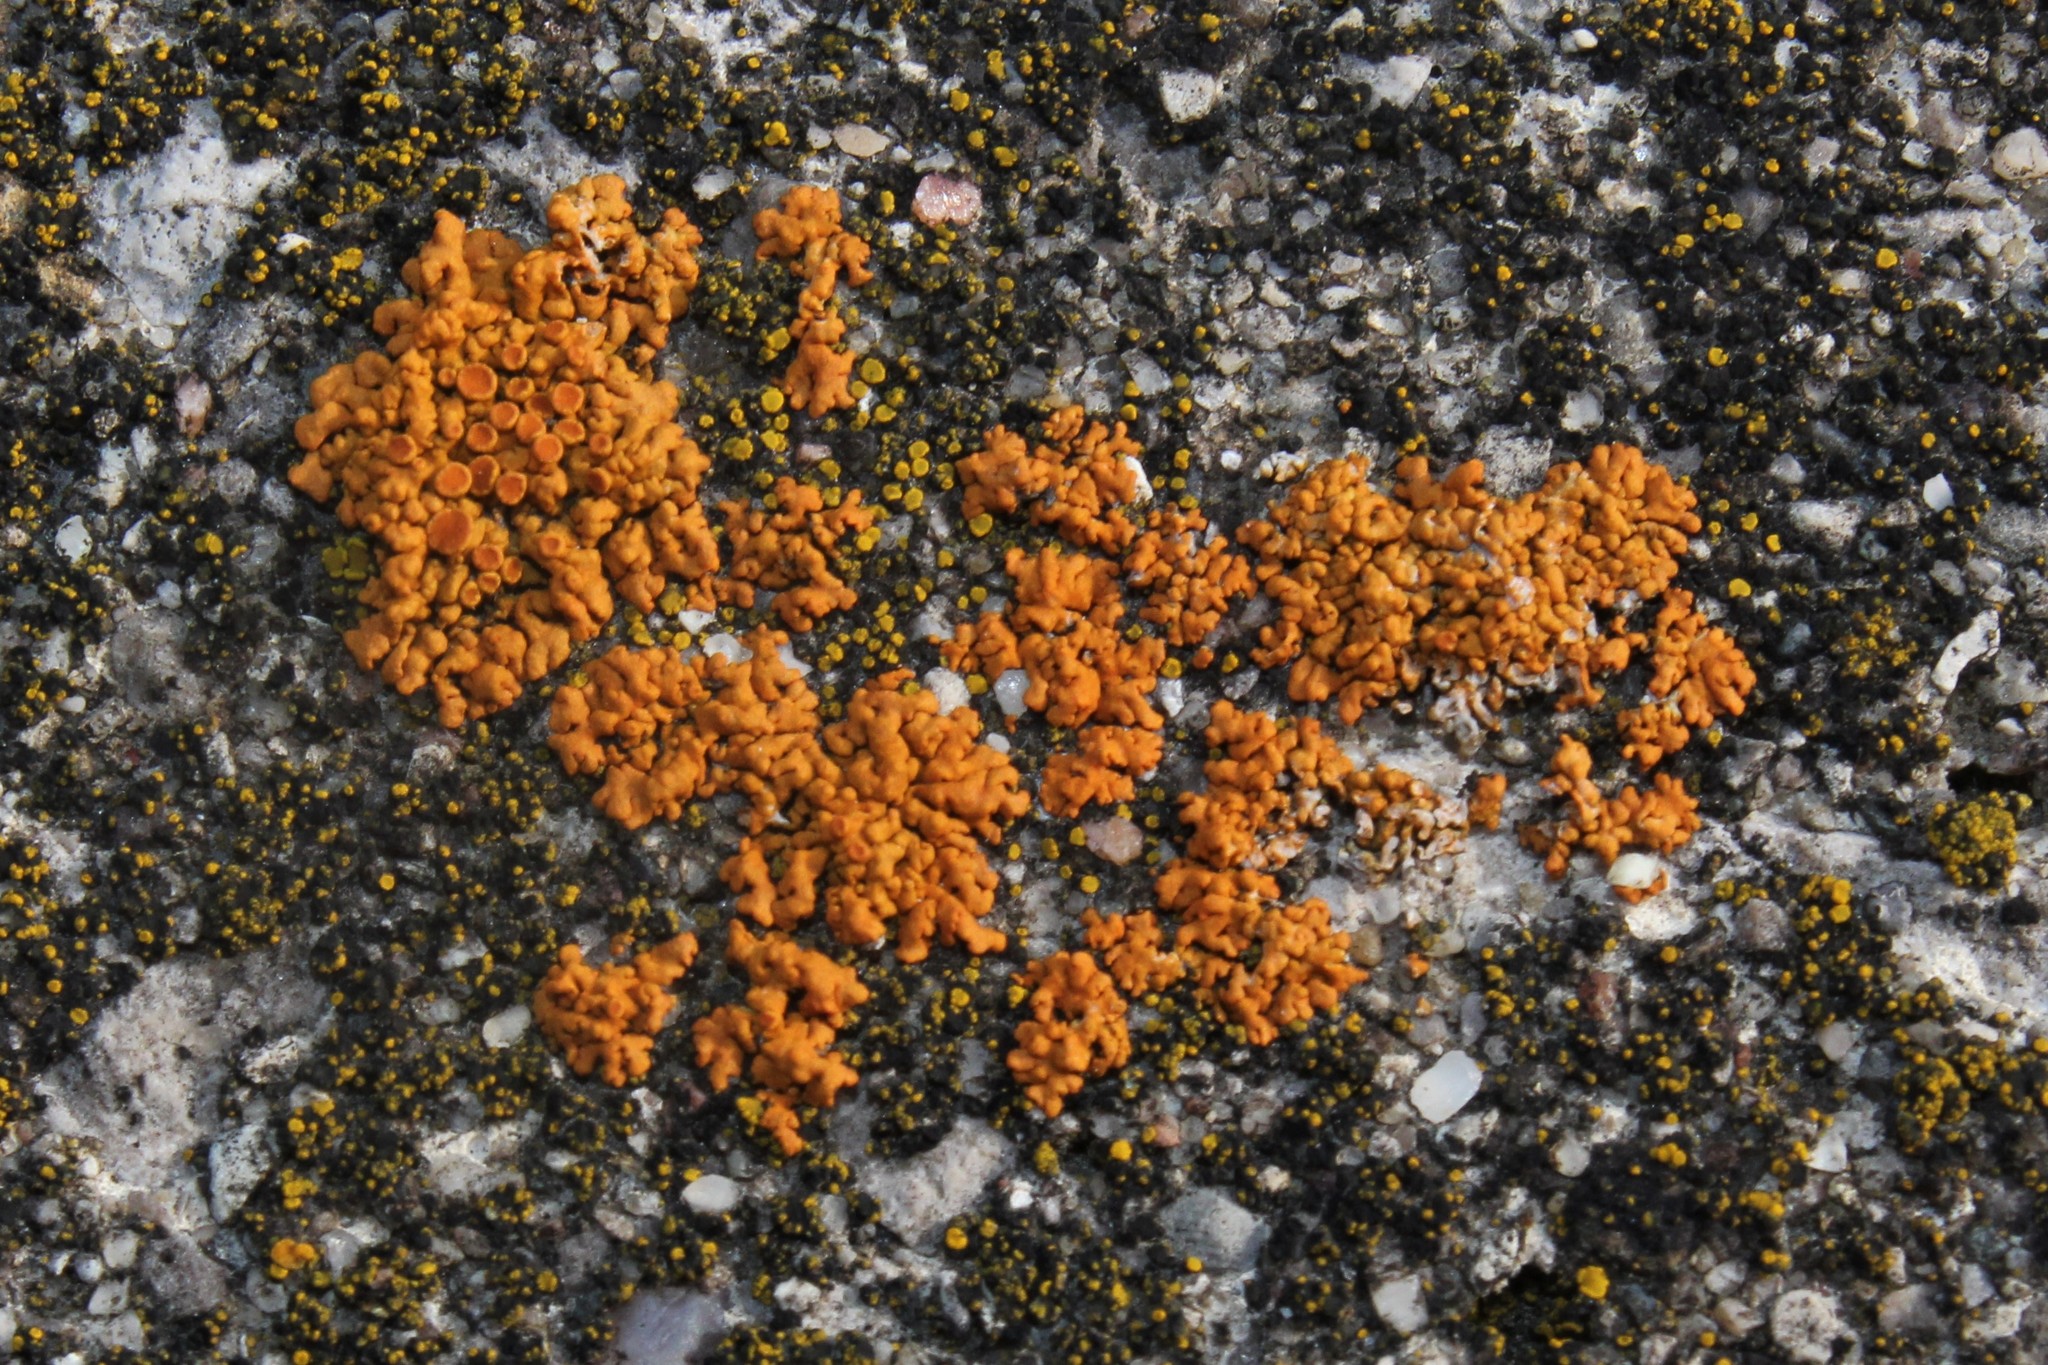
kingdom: Fungi
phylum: Ascomycota
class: Lecanoromycetes
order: Teloschistales
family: Teloschistaceae
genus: Xanthoria
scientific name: Xanthoria elegans
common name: Elegant sunburst lichen
